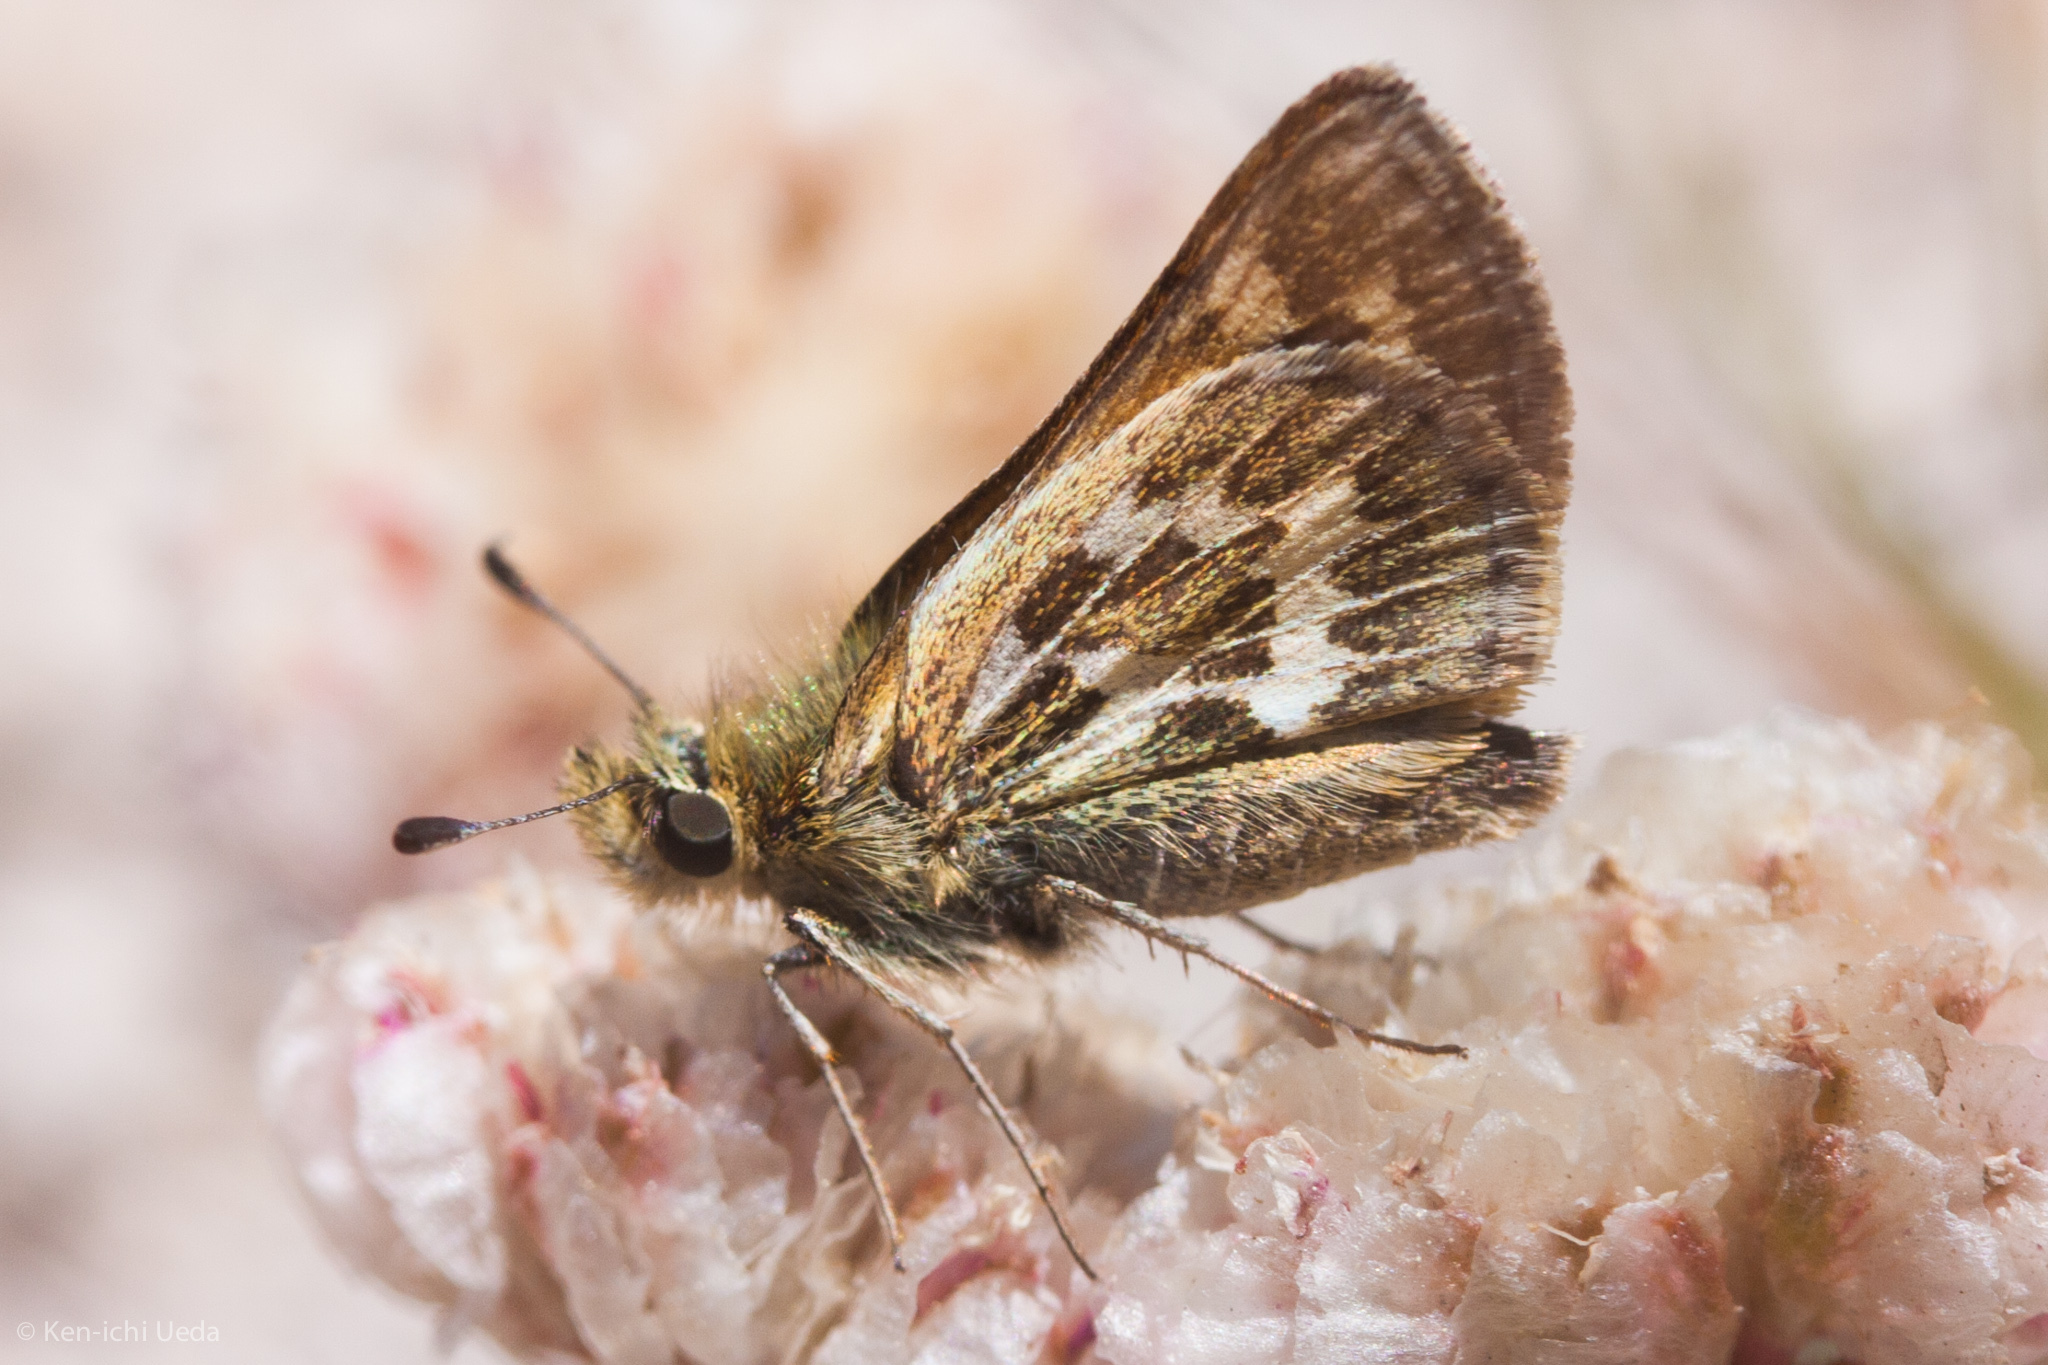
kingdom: Animalia
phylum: Arthropoda
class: Insecta
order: Lepidoptera
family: Hesperiidae
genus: Polites
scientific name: Polites sabuleti
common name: Sandhill skipper
